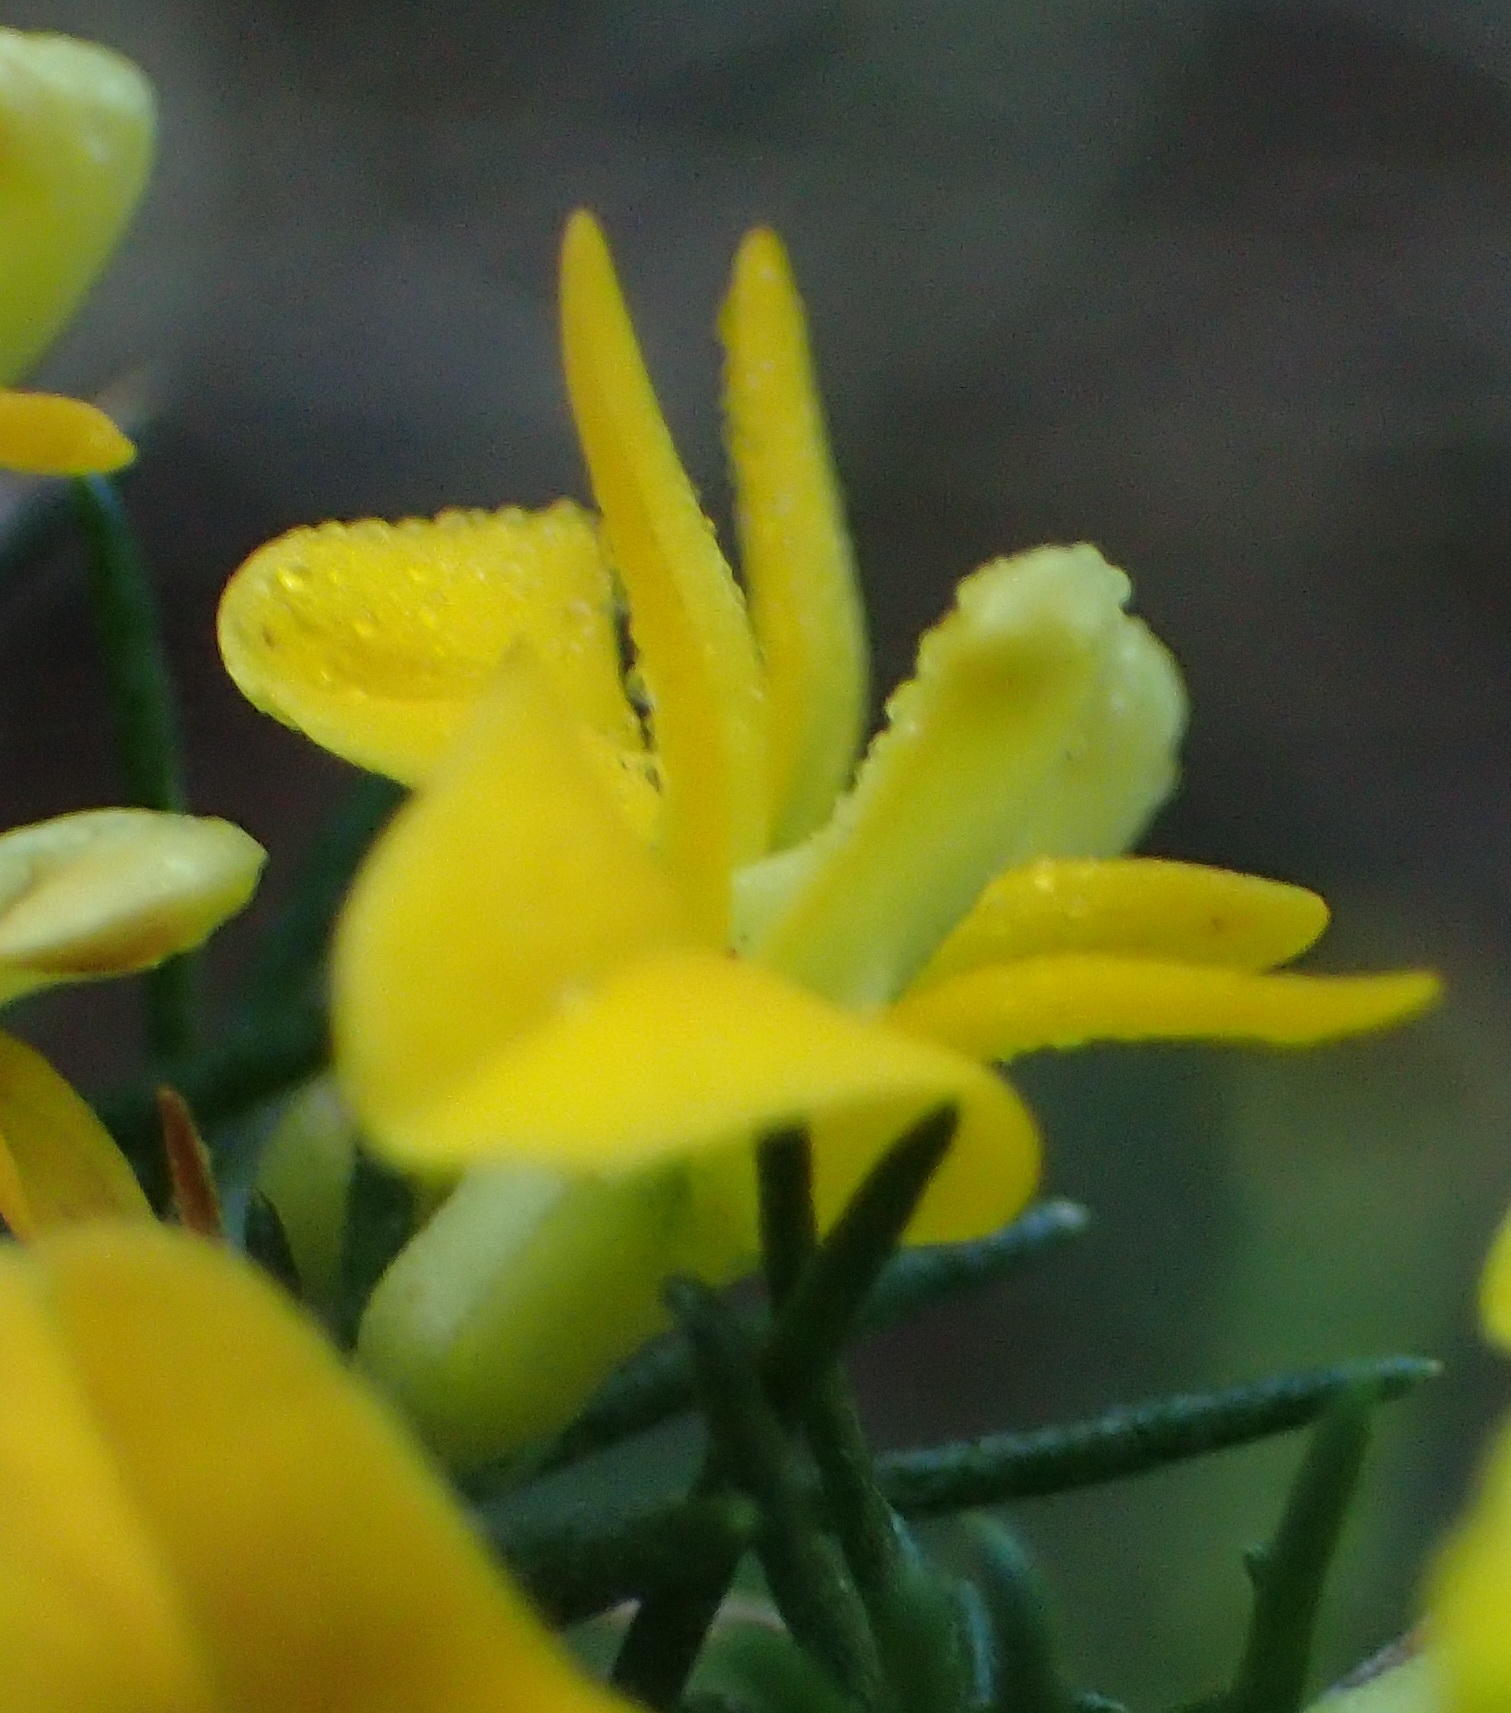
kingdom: Plantae
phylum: Tracheophyta
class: Magnoliopsida
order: Fabales
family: Fabaceae
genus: Aspalathus
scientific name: Aspalathus spinosa
